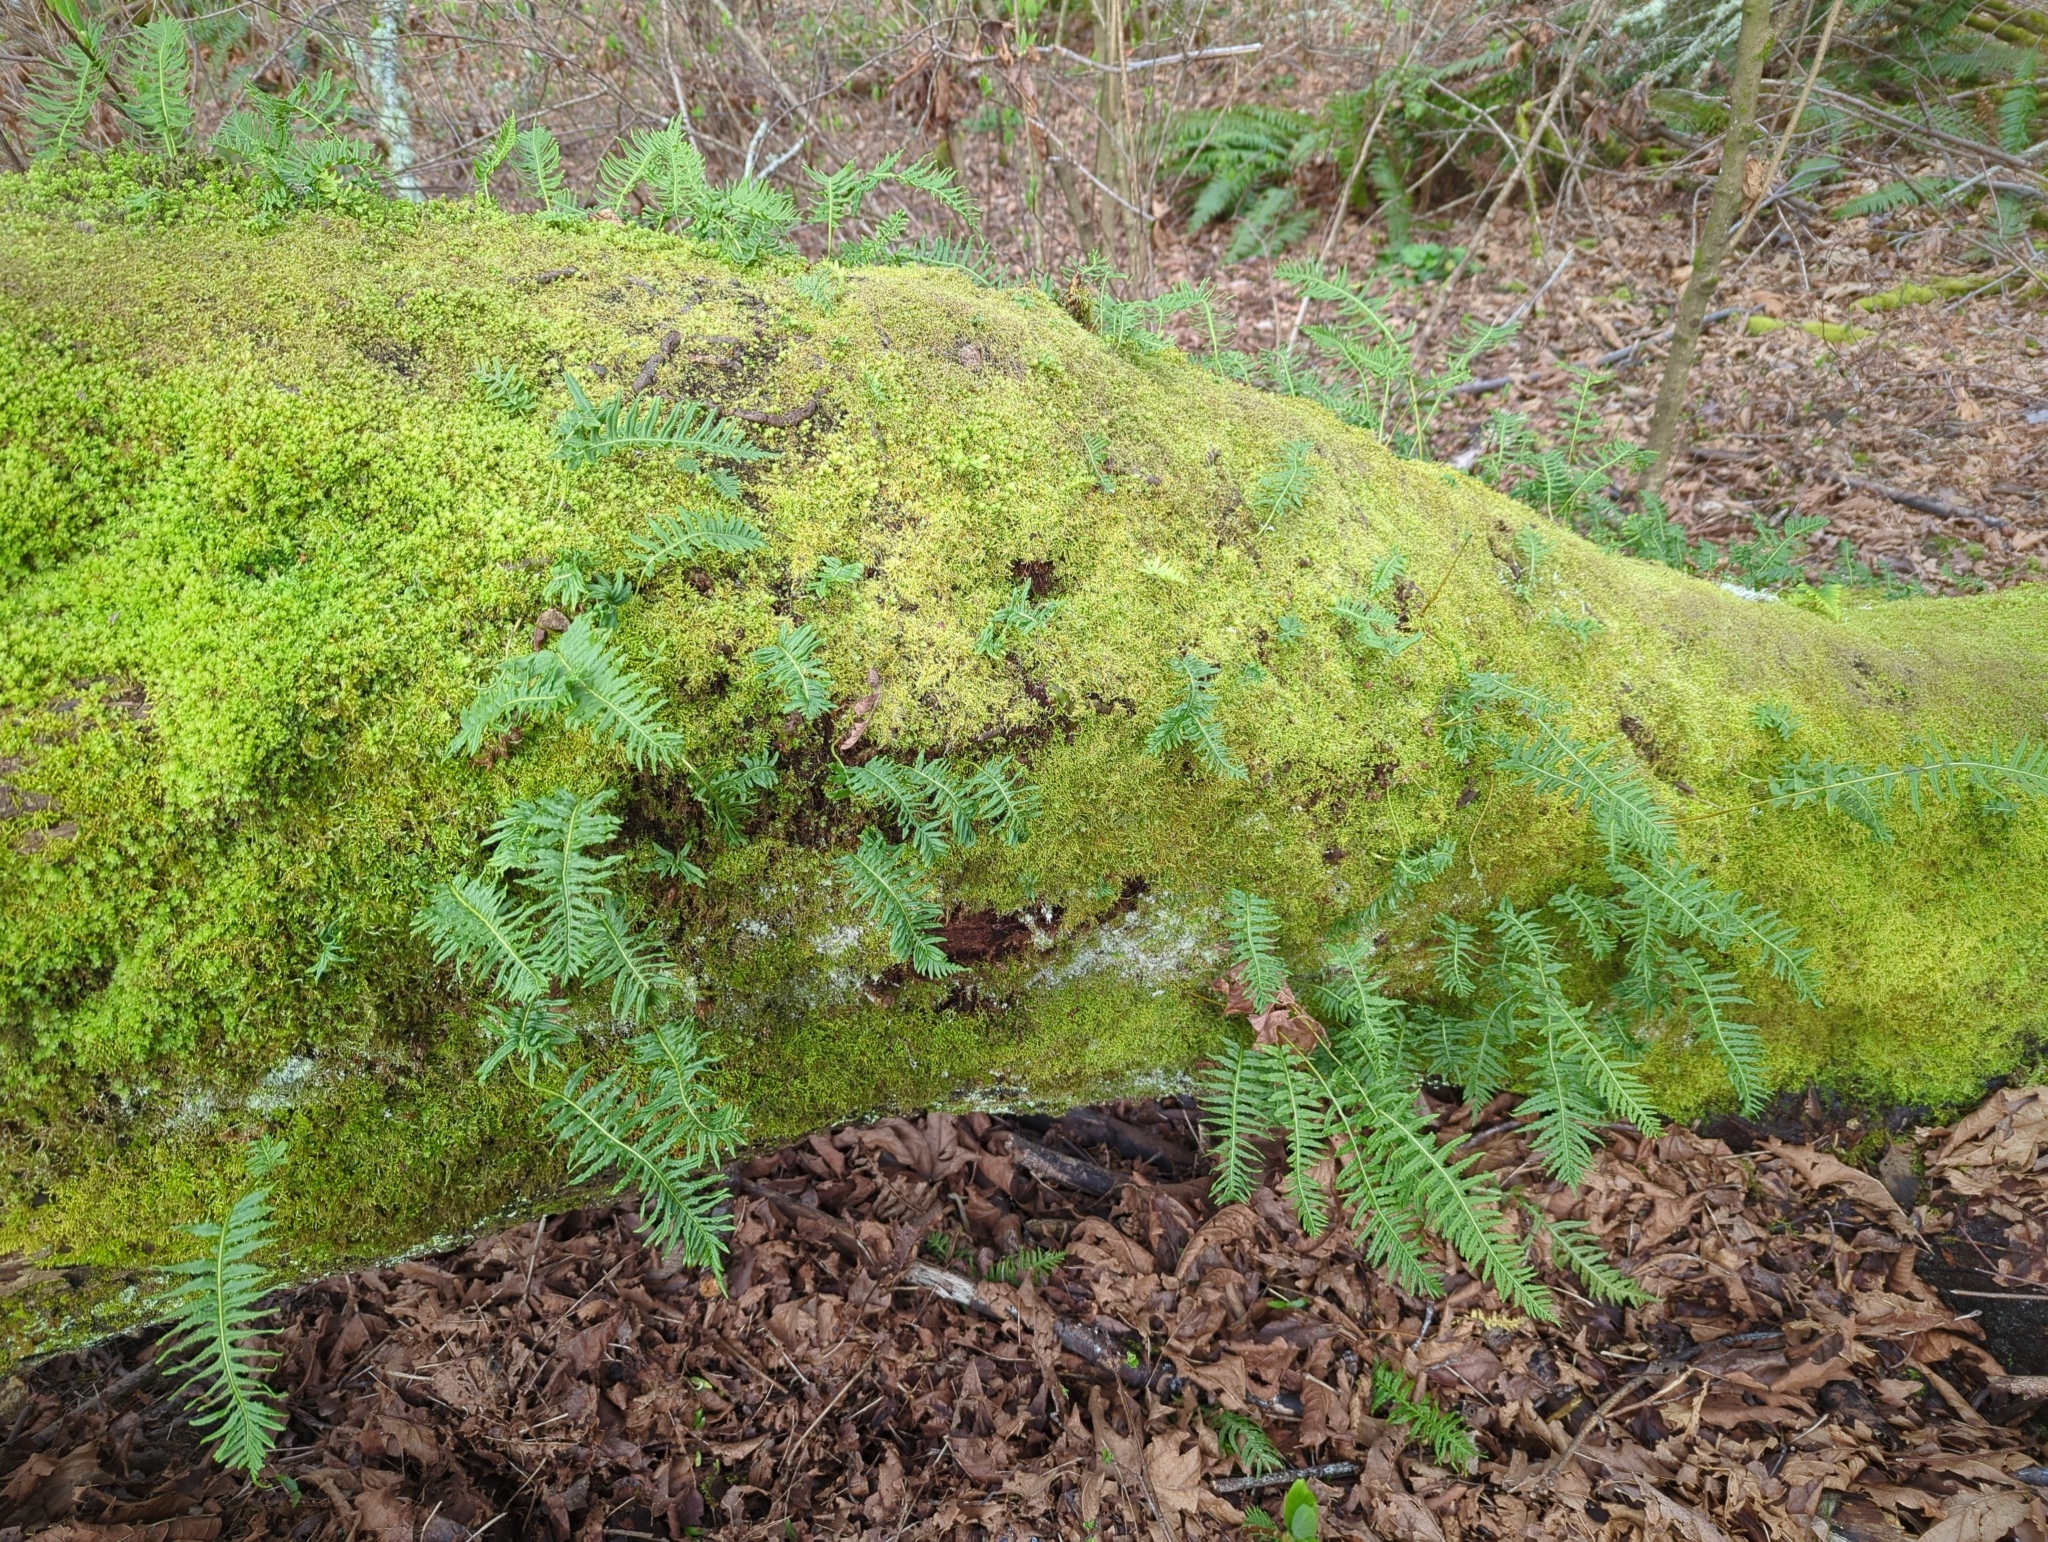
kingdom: Plantae
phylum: Tracheophyta
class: Polypodiopsida
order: Polypodiales
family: Polypodiaceae
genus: Polypodium
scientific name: Polypodium glycyrrhiza
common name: Licorice fern
